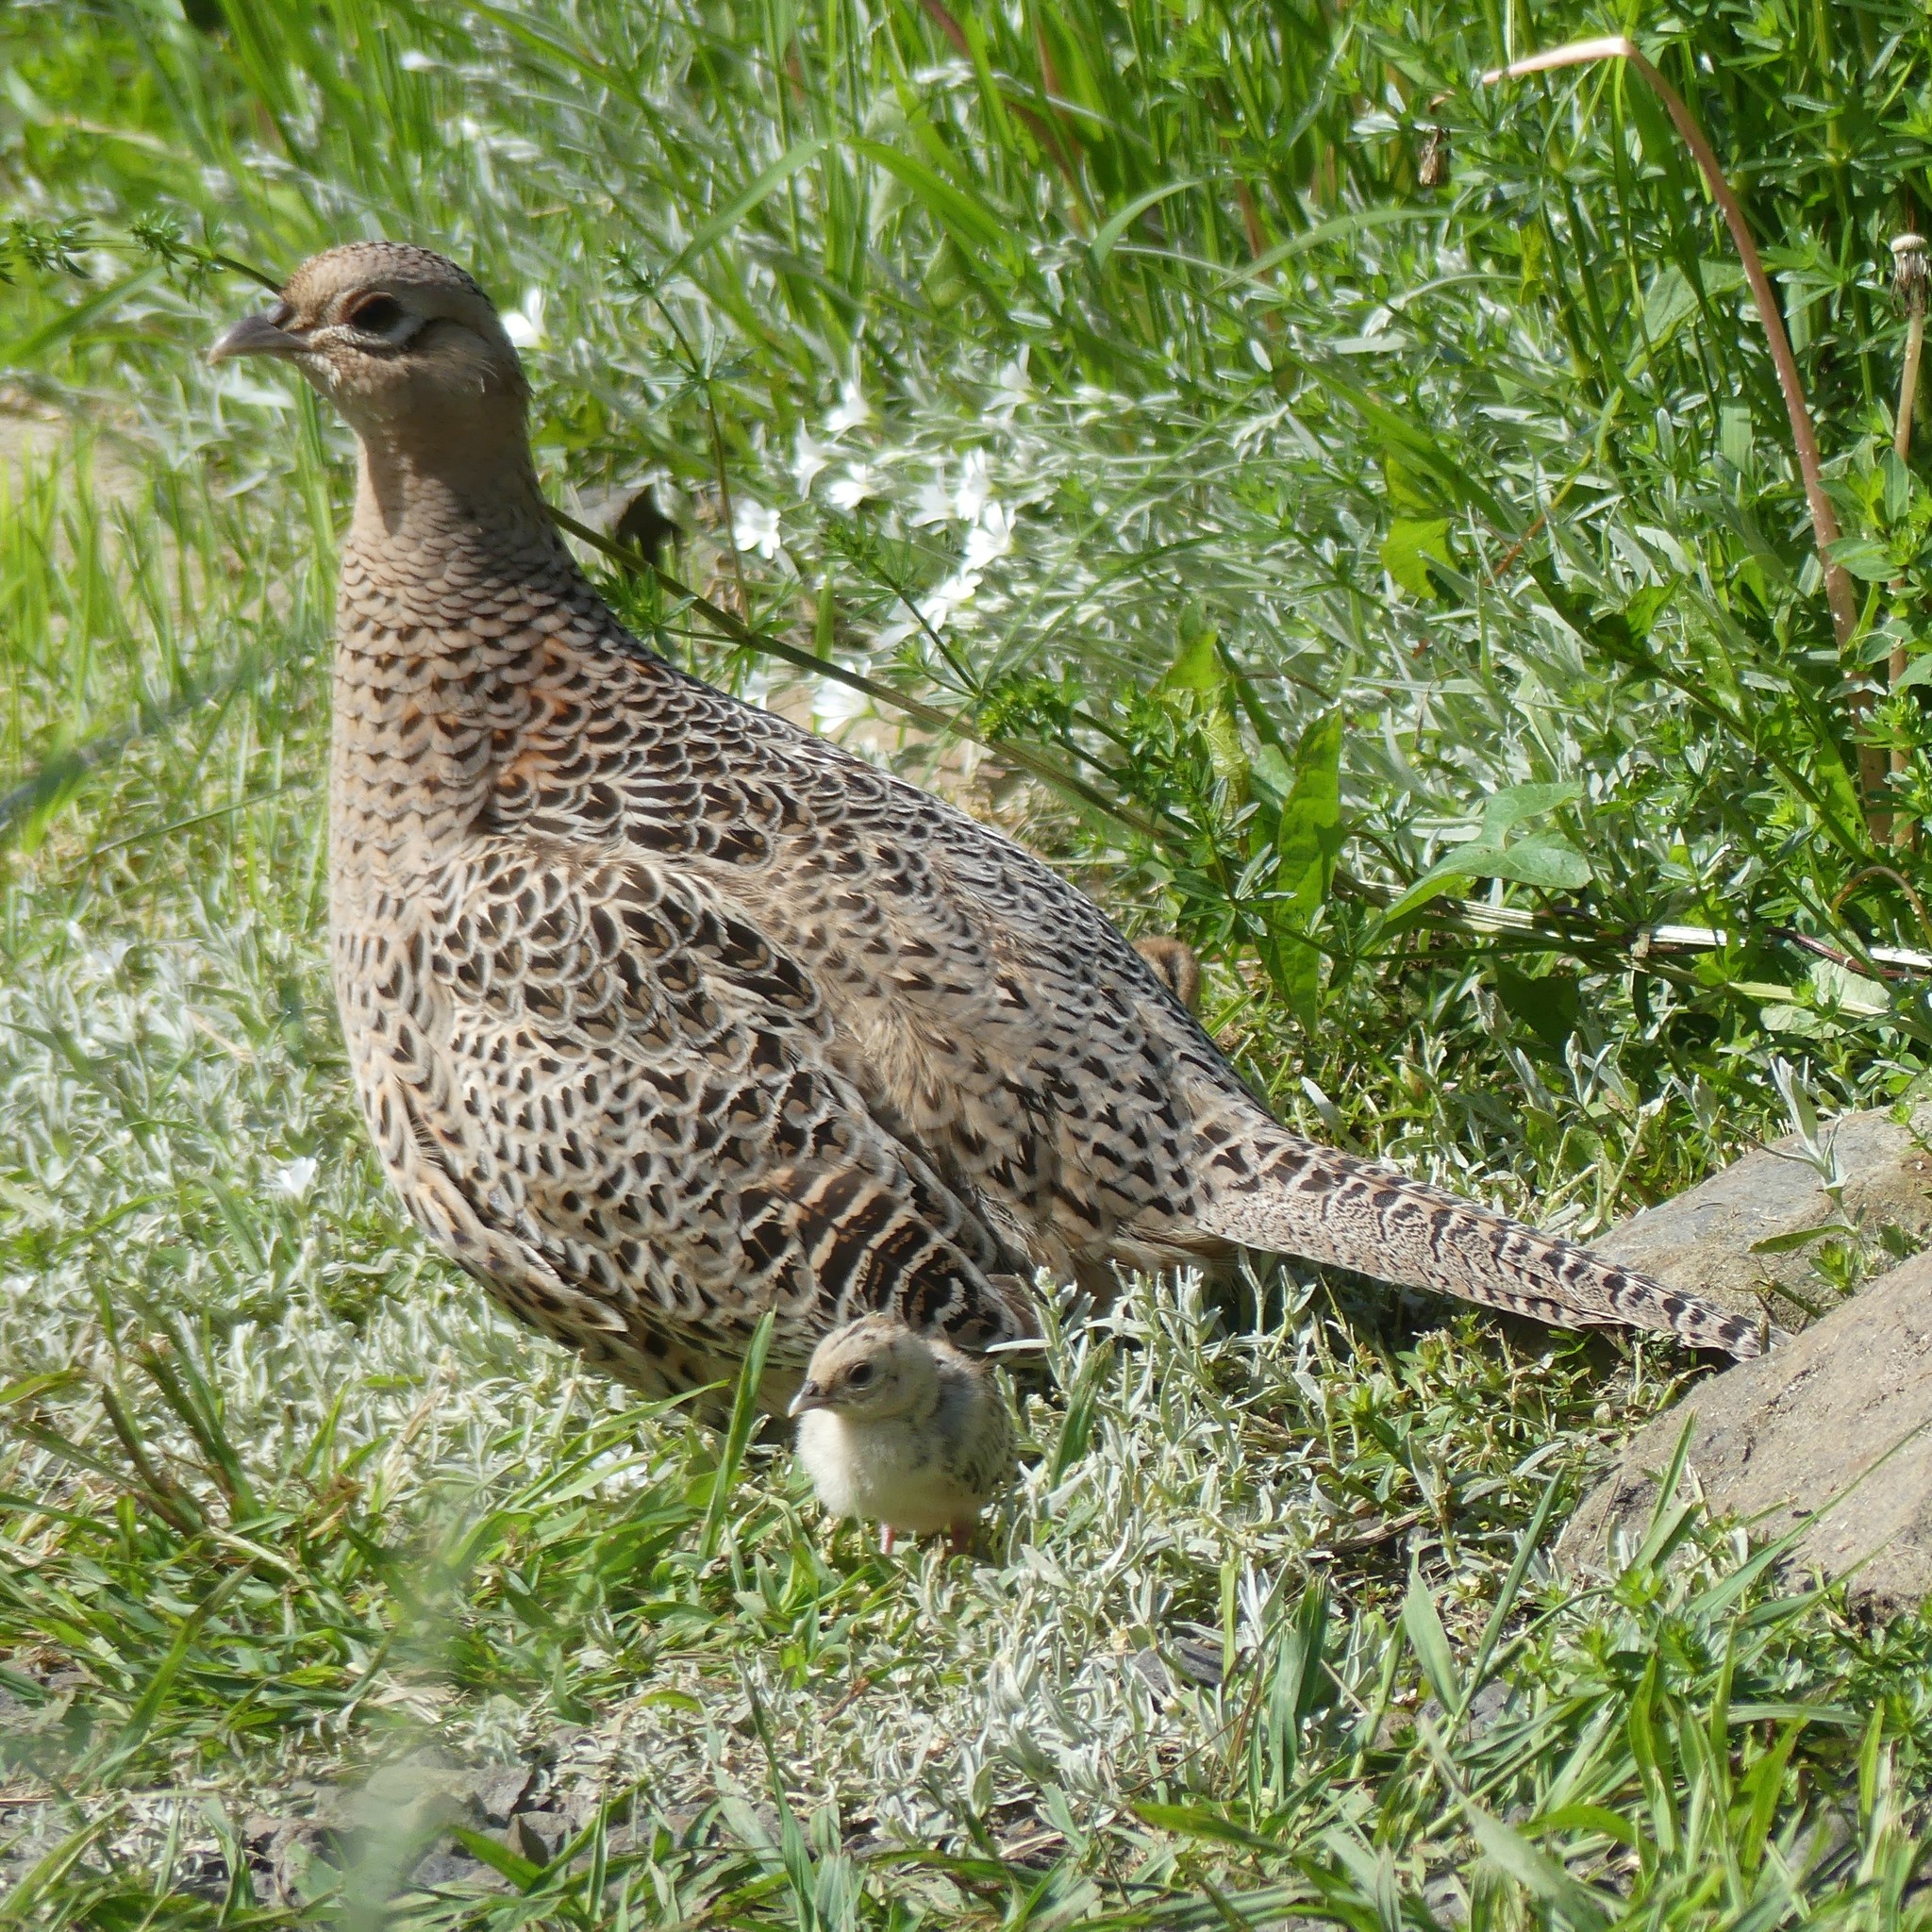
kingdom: Animalia
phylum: Chordata
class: Aves
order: Galliformes
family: Phasianidae
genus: Phasianus
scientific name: Phasianus colchicus
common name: Common pheasant
